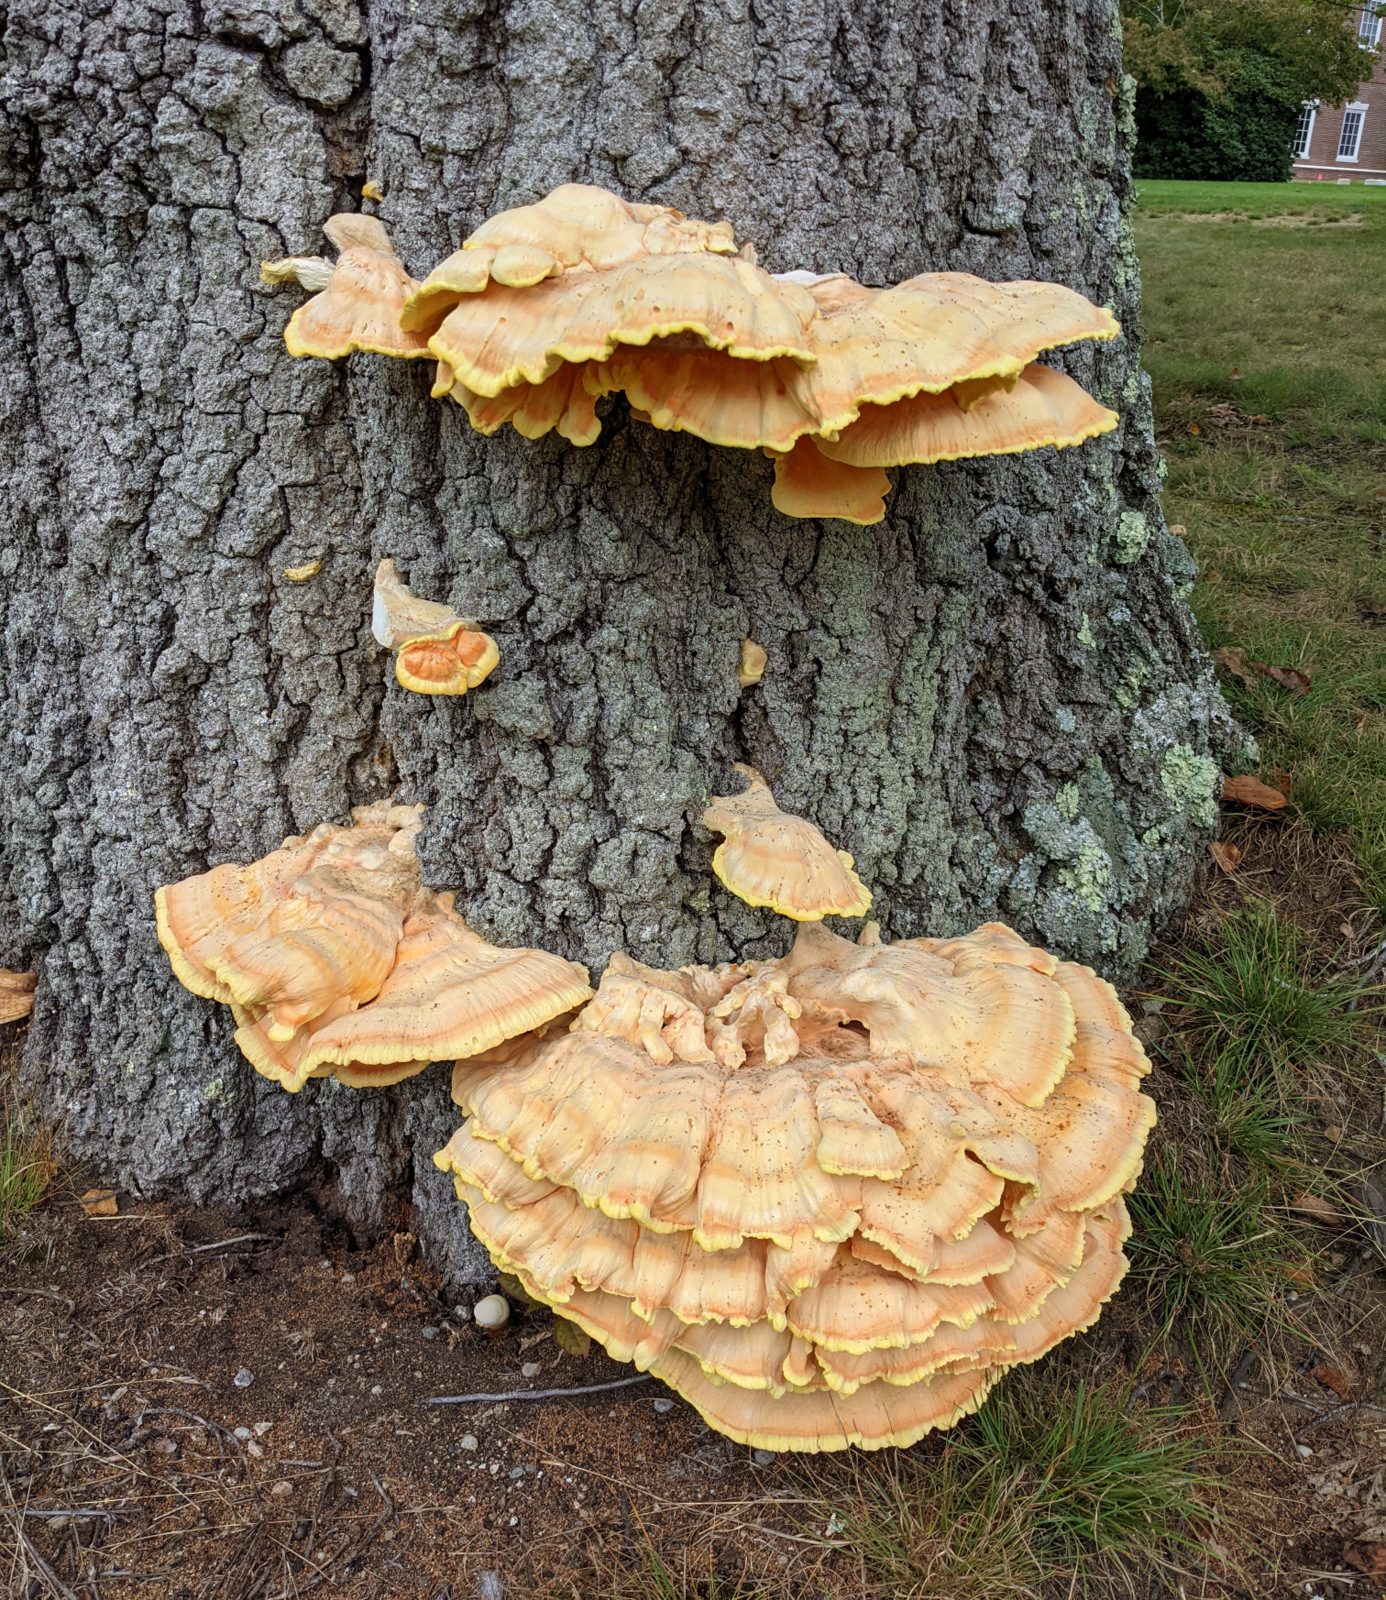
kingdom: Fungi
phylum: Basidiomycota
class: Agaricomycetes
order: Polyporales
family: Laetiporaceae
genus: Laetiporus
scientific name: Laetiporus sulphureus
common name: Chicken of the woods
